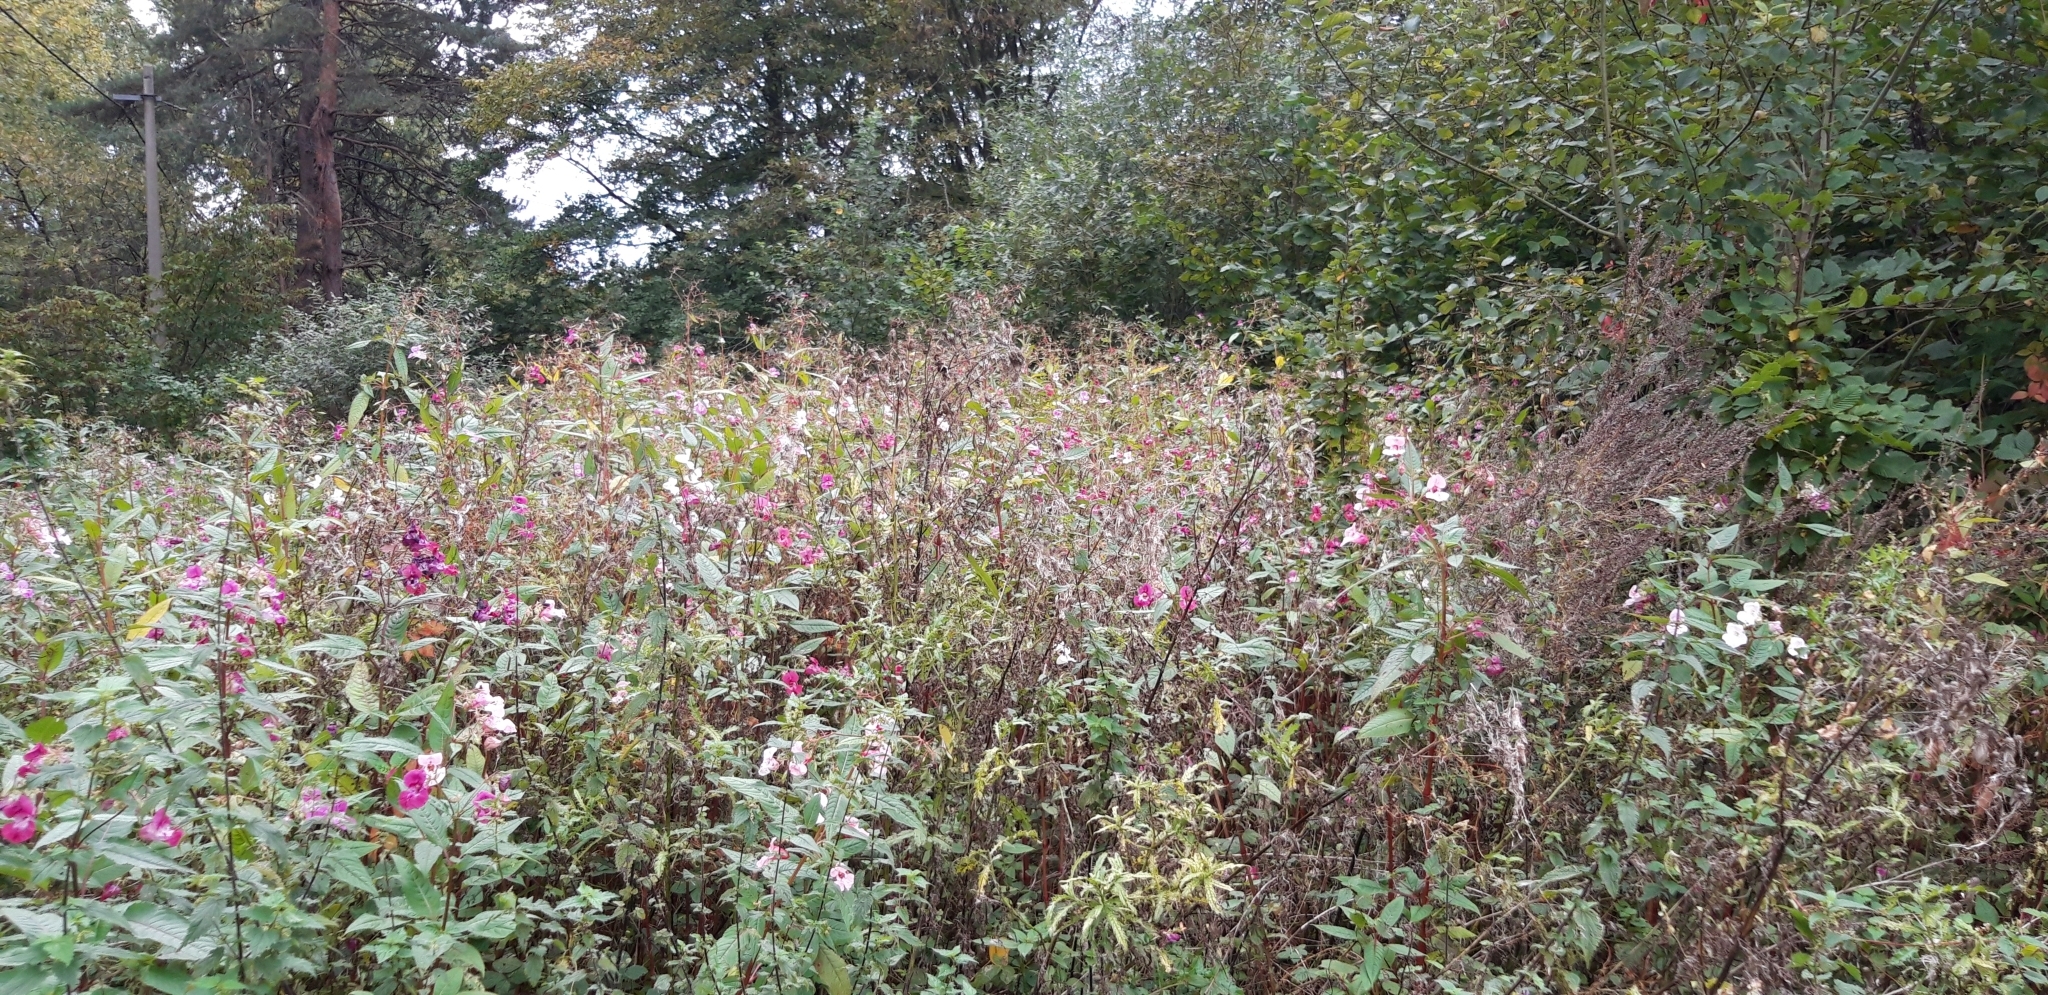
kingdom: Plantae
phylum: Tracheophyta
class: Magnoliopsida
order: Ericales
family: Balsaminaceae
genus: Impatiens
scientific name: Impatiens glandulifera
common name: Himalayan balsam
